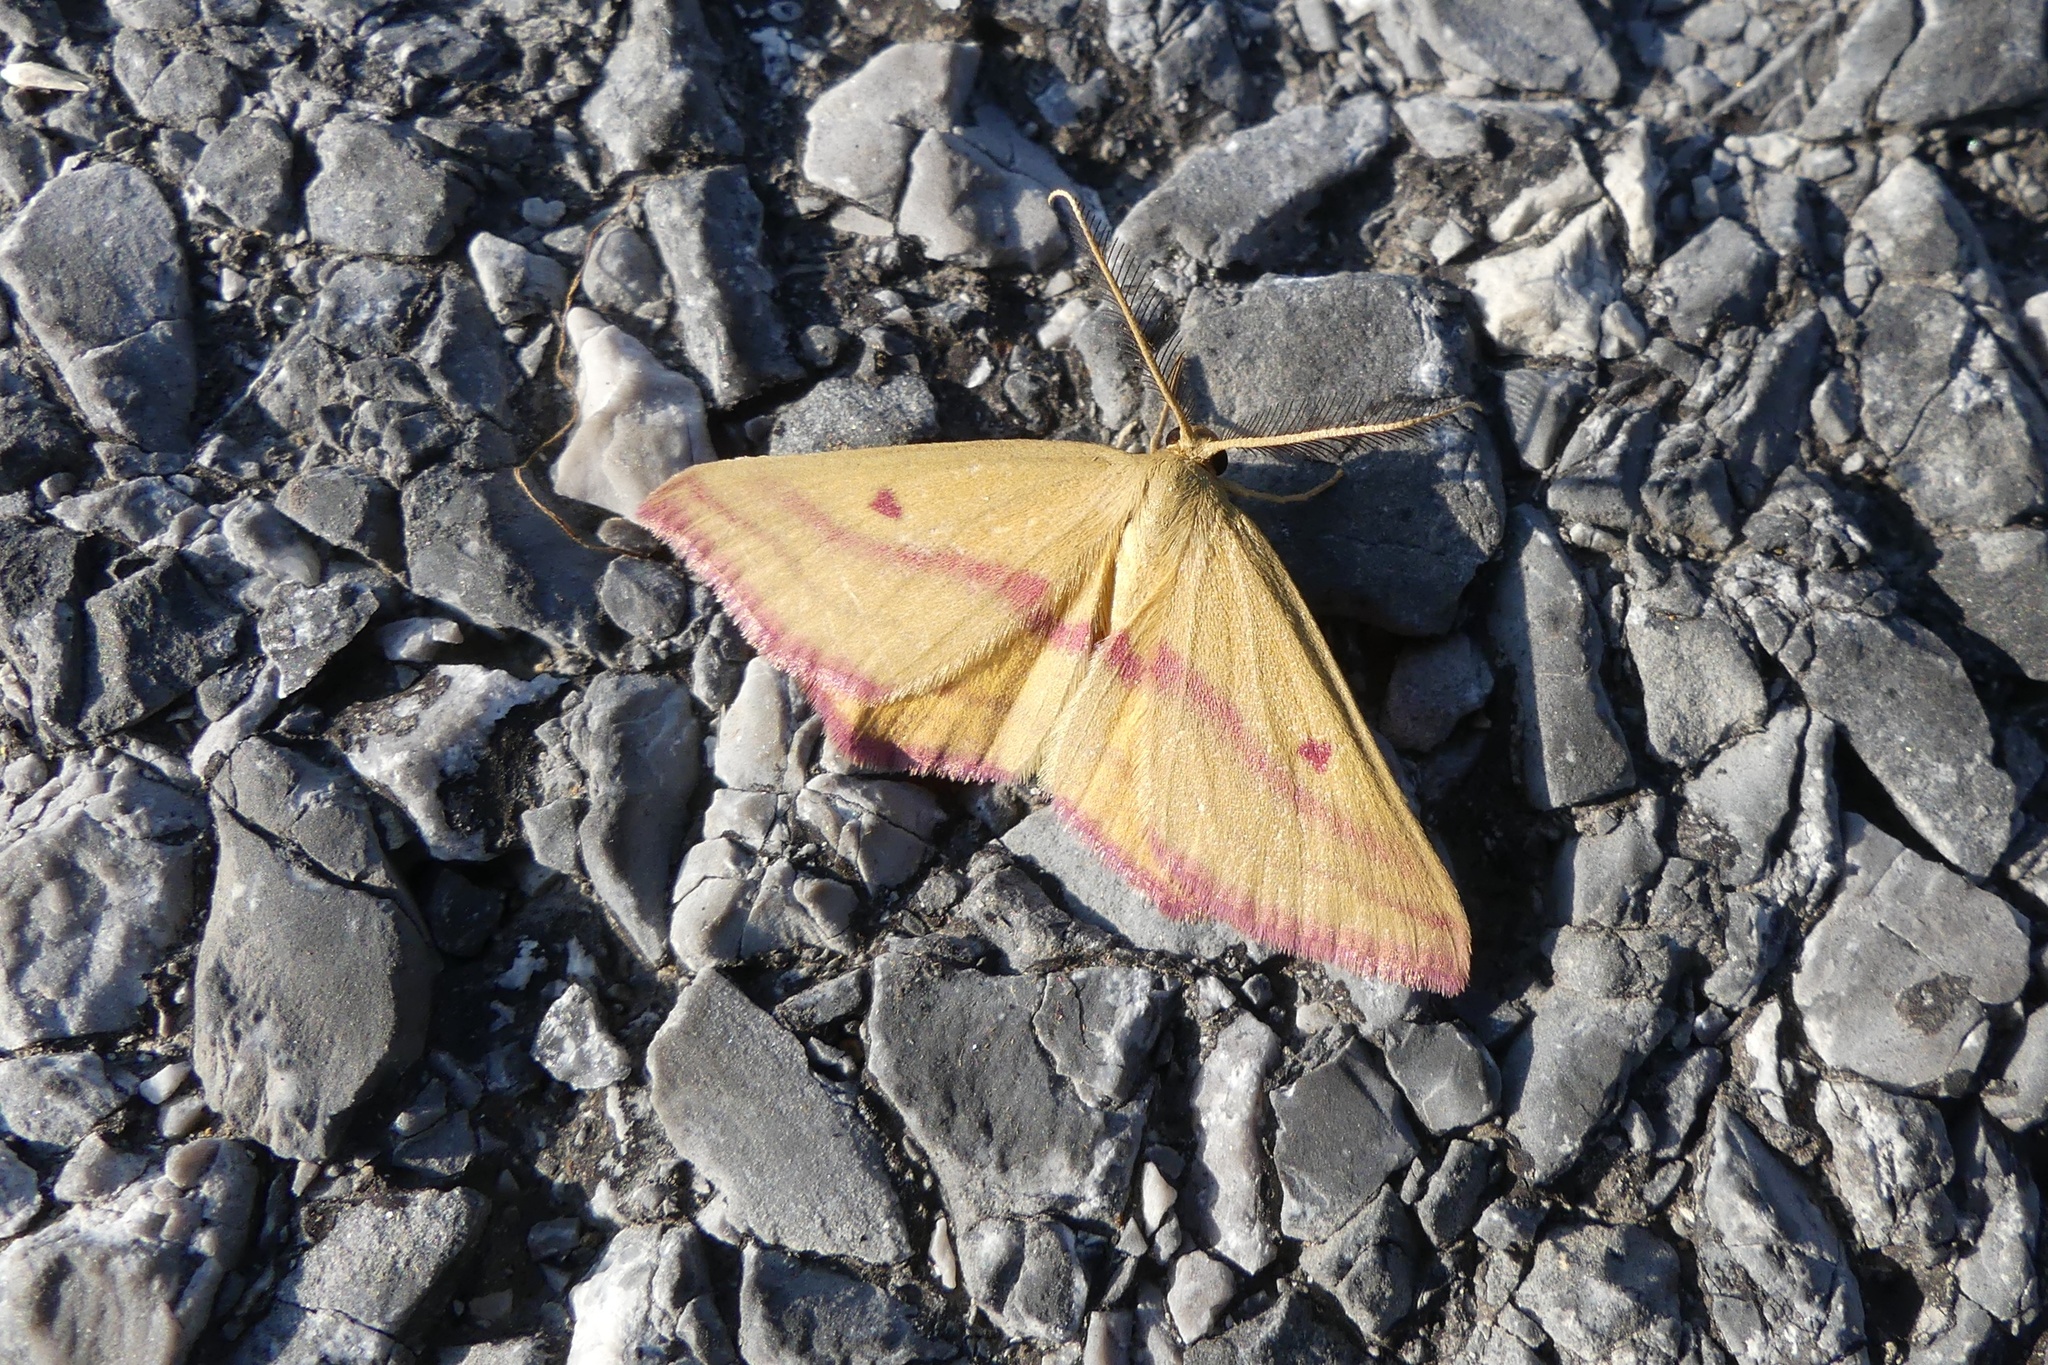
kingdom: Animalia
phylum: Arthropoda
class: Insecta
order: Lepidoptera
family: Geometridae
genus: Haematopis
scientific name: Haematopis grataria
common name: Chickweed geometer
